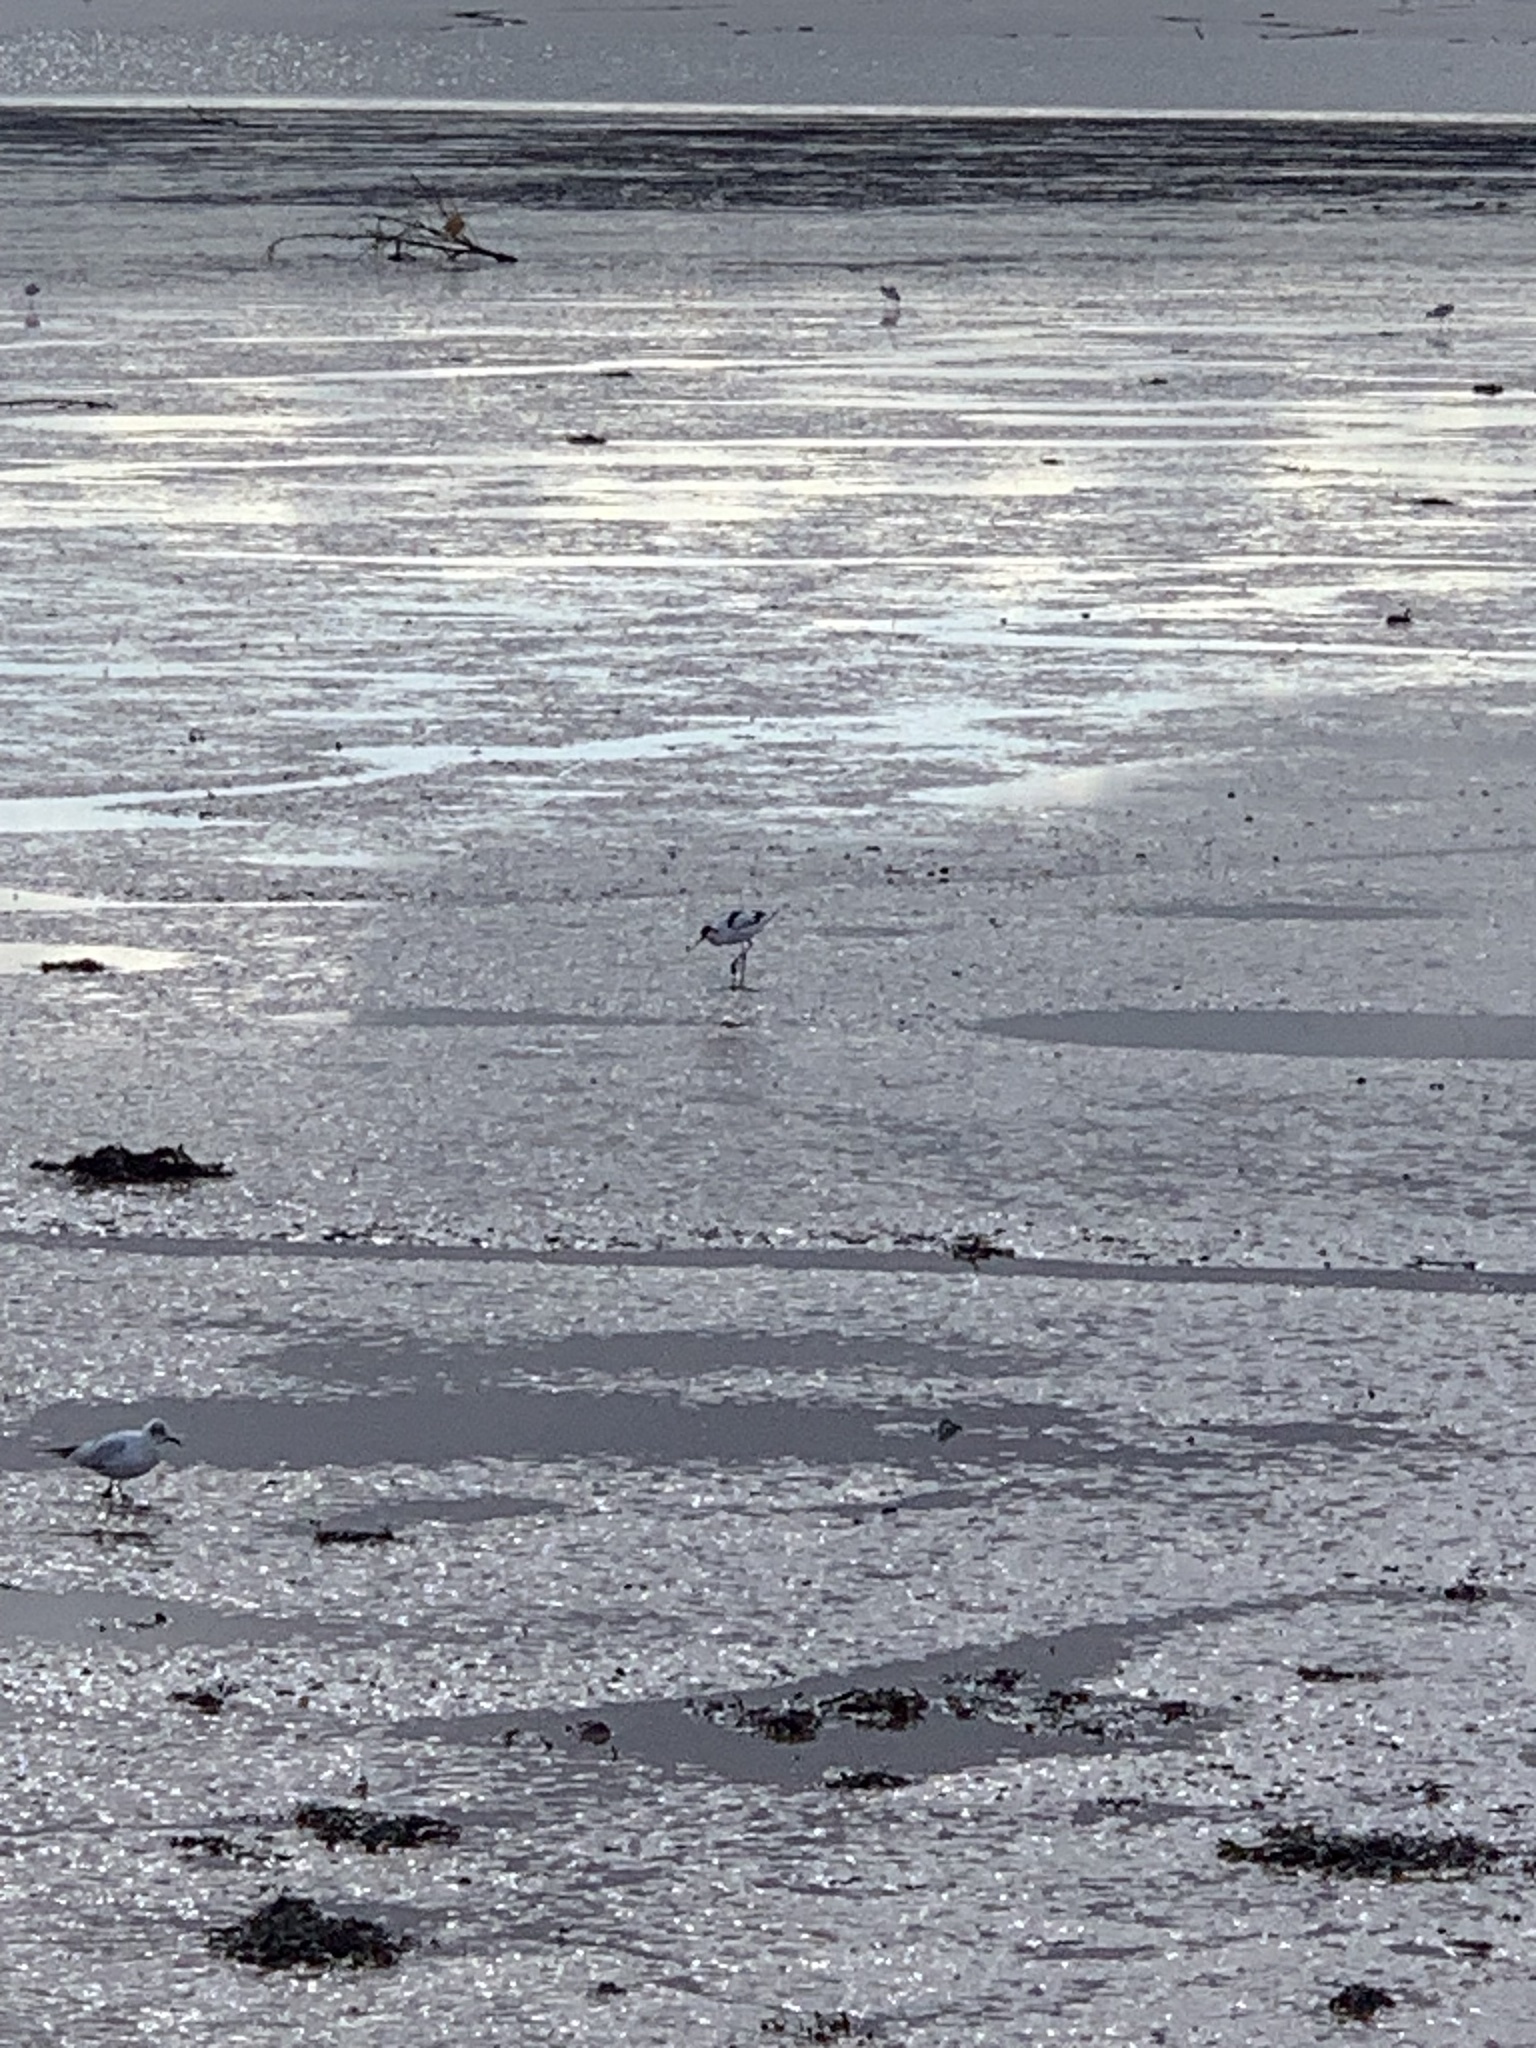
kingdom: Animalia
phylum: Chordata
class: Aves
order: Charadriiformes
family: Recurvirostridae
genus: Recurvirostra
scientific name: Recurvirostra avosetta
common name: Pied avocet
